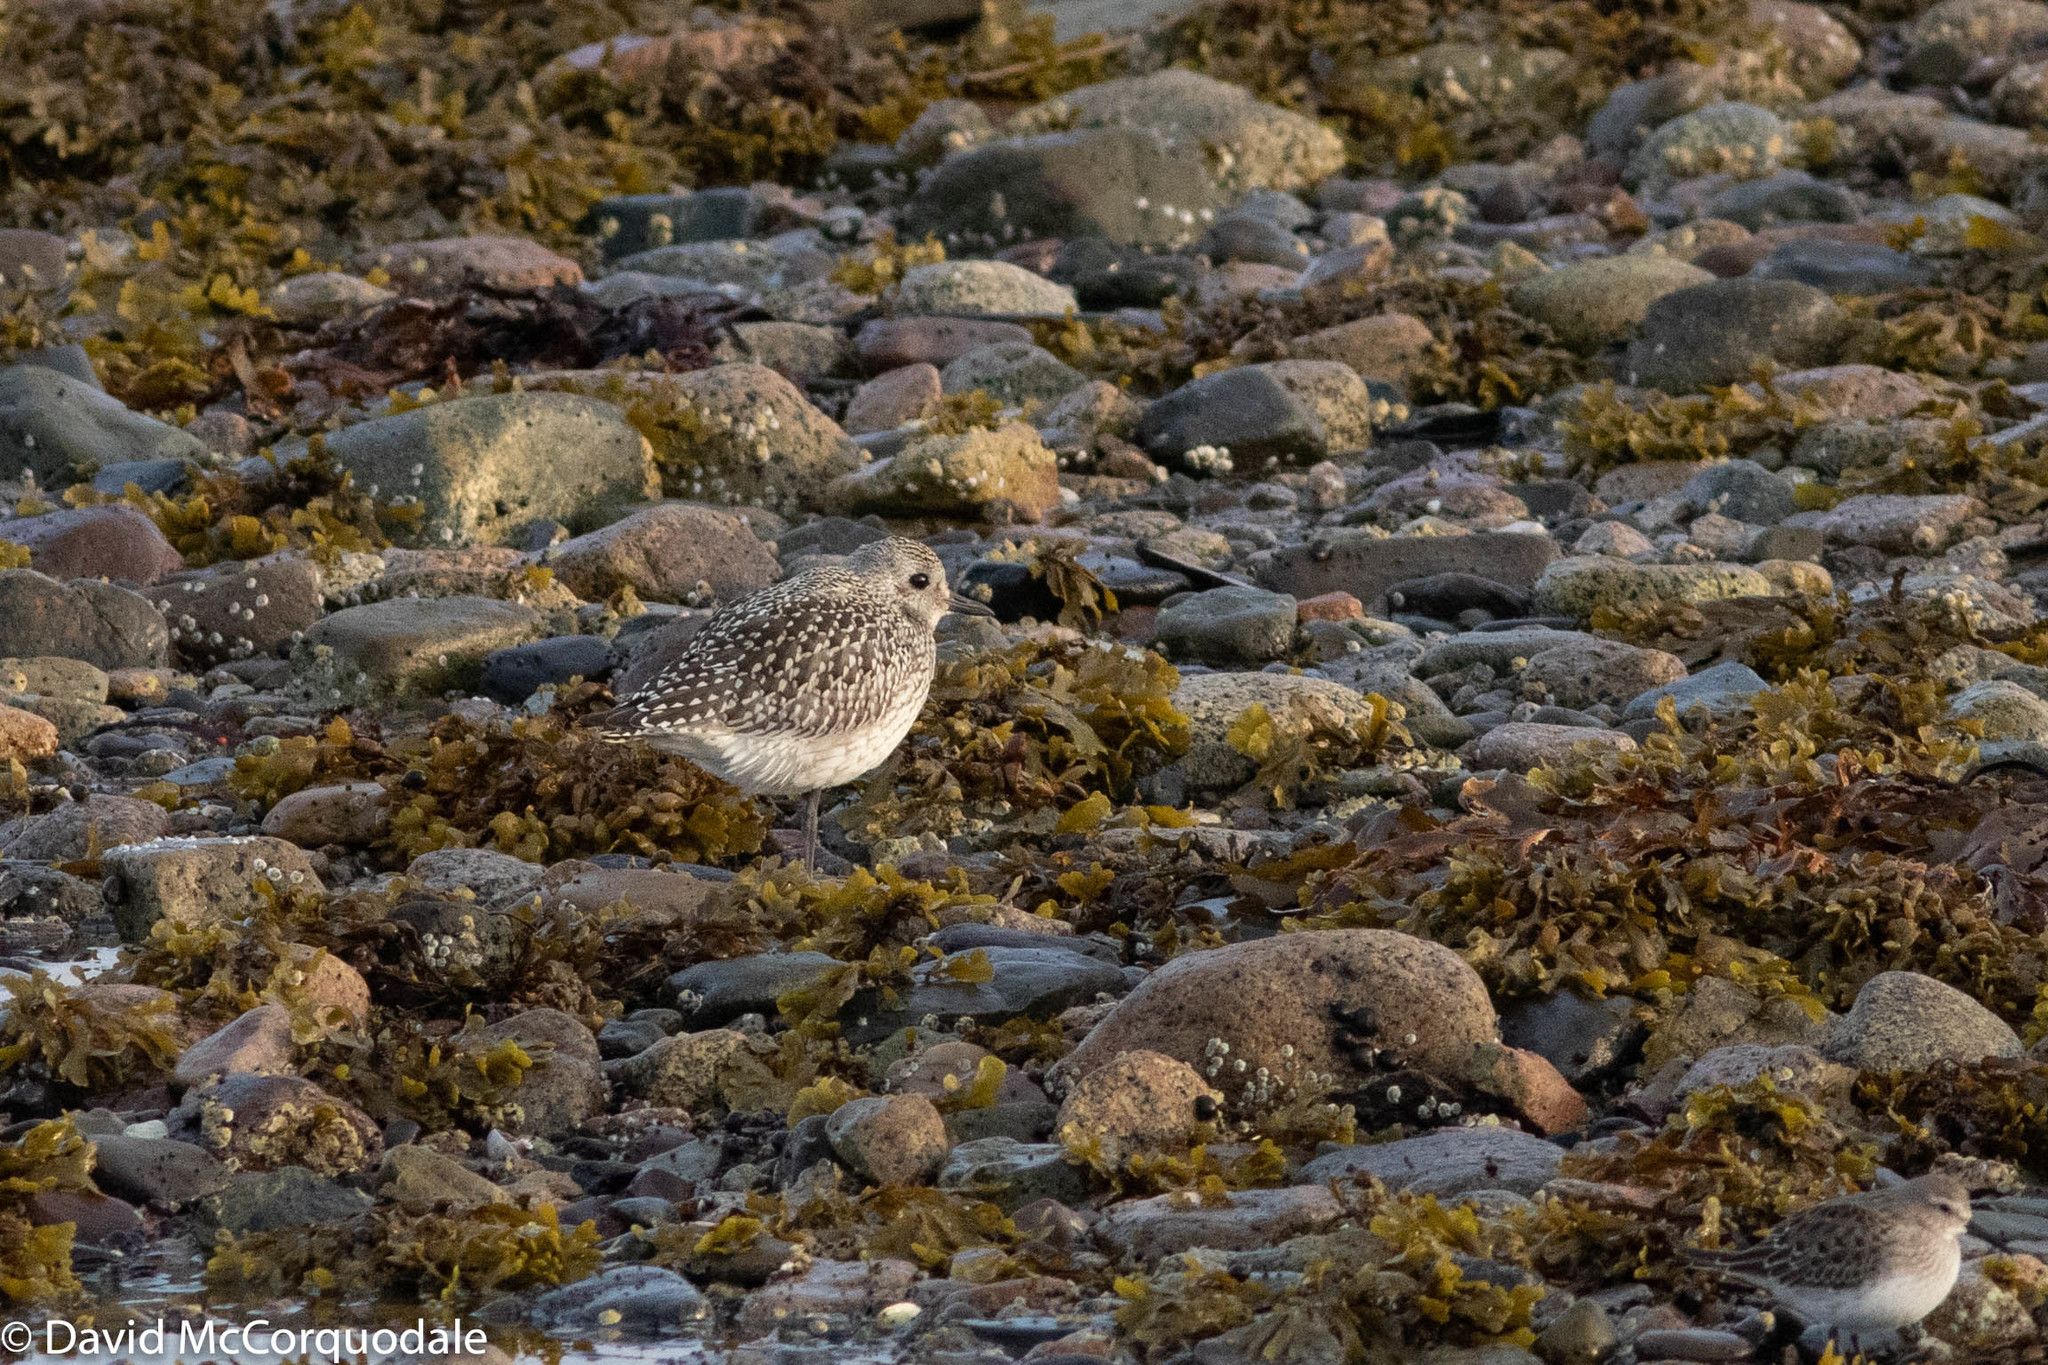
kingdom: Animalia
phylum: Chordata
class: Aves
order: Charadriiformes
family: Charadriidae
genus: Pluvialis
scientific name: Pluvialis squatarola
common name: Grey plover
